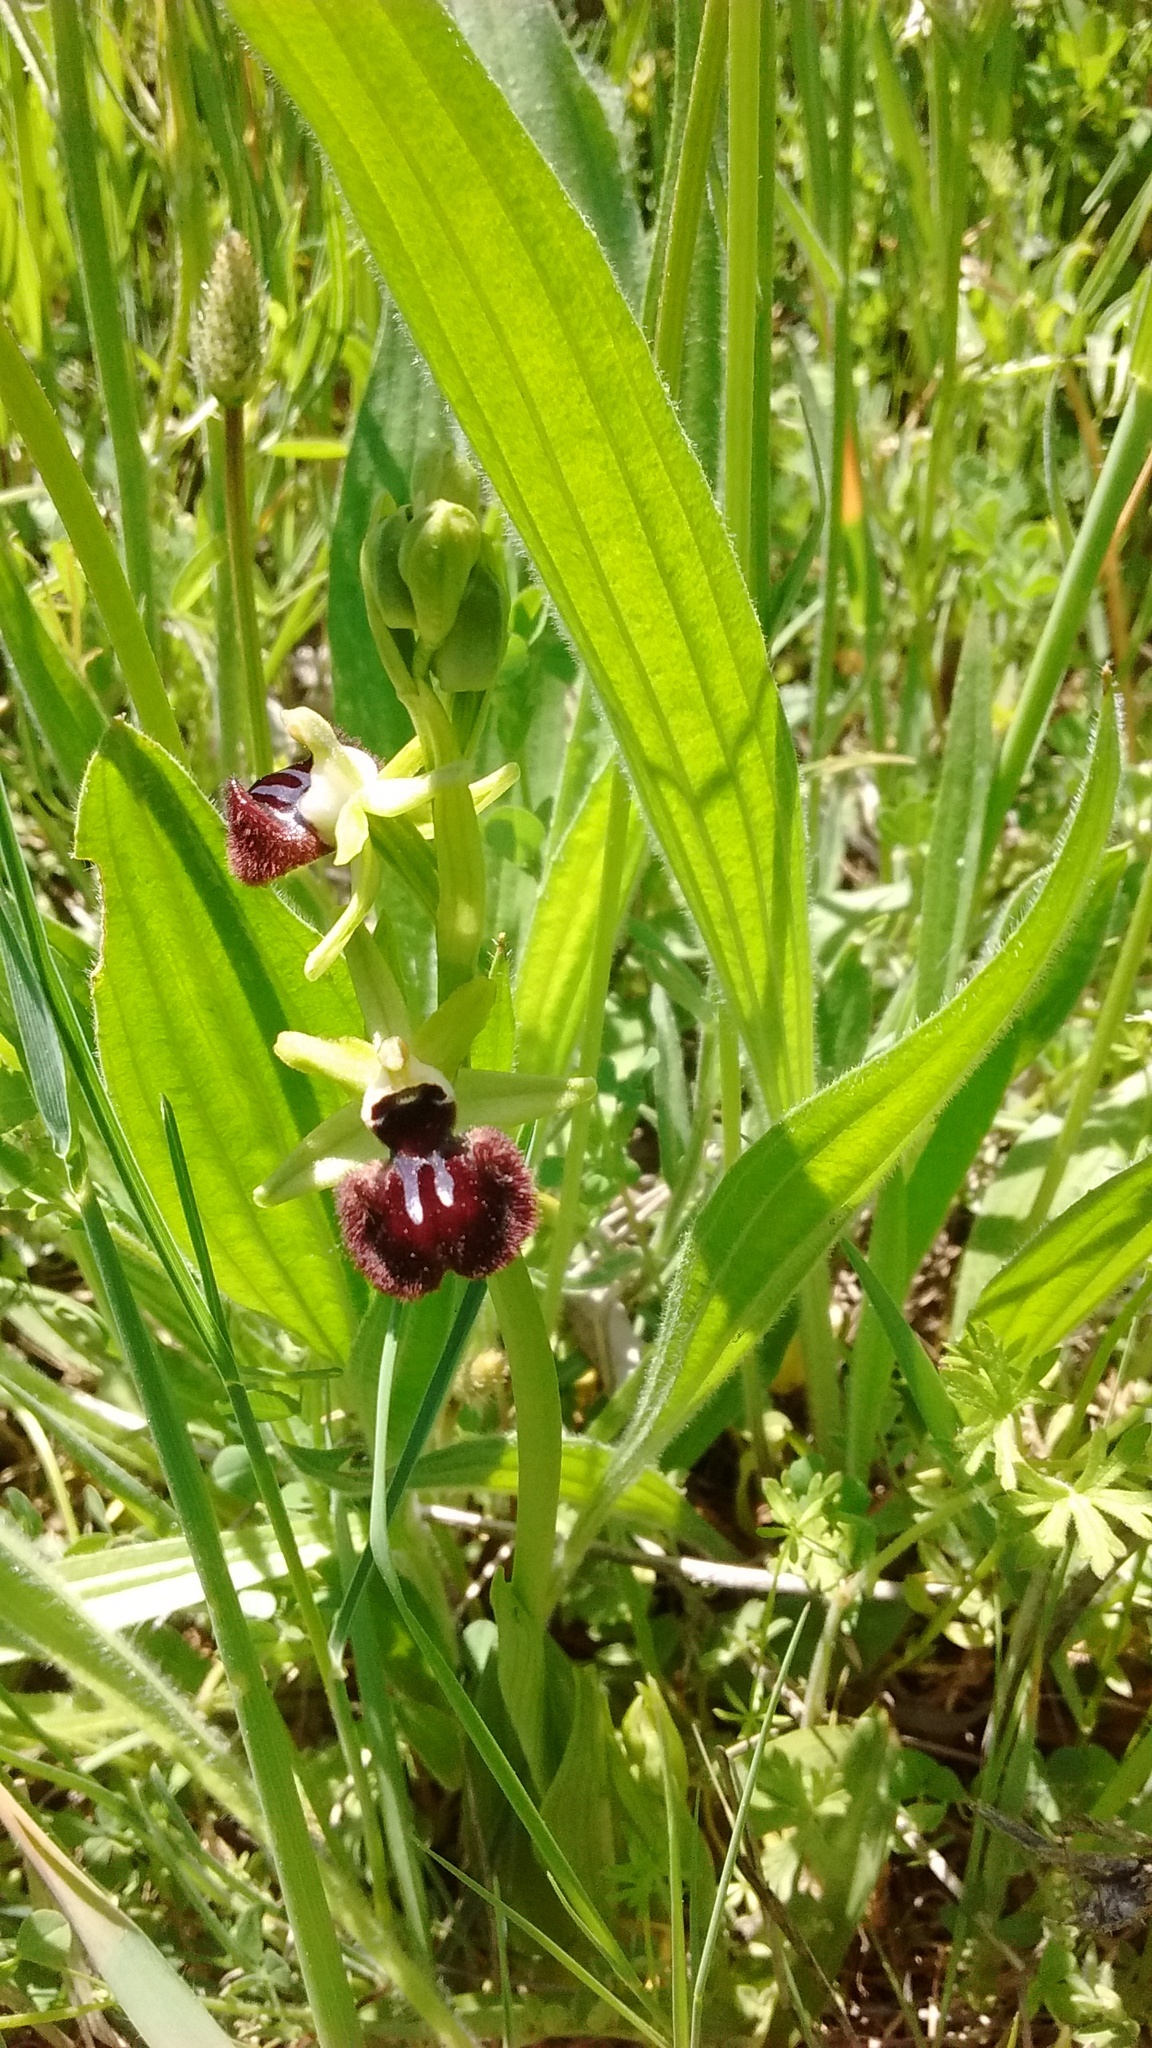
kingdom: Plantae
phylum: Tracheophyta
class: Liliopsida
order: Asparagales
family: Orchidaceae
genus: Ophrys
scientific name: Ophrys sphegodes
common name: Early spider-orchid
